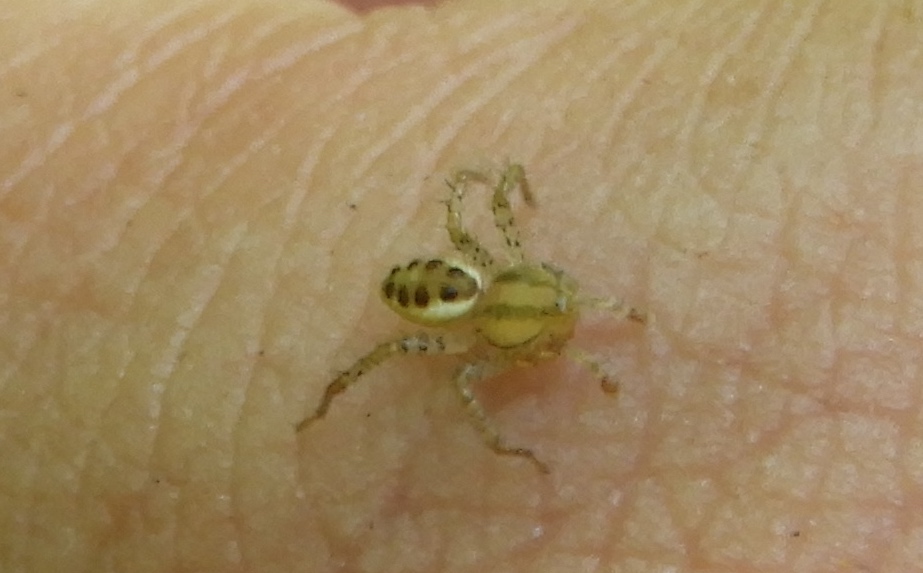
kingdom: Animalia
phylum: Arthropoda
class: Arachnida
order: Araneae
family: Thomisidae
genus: Isaloides
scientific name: Isaloides
